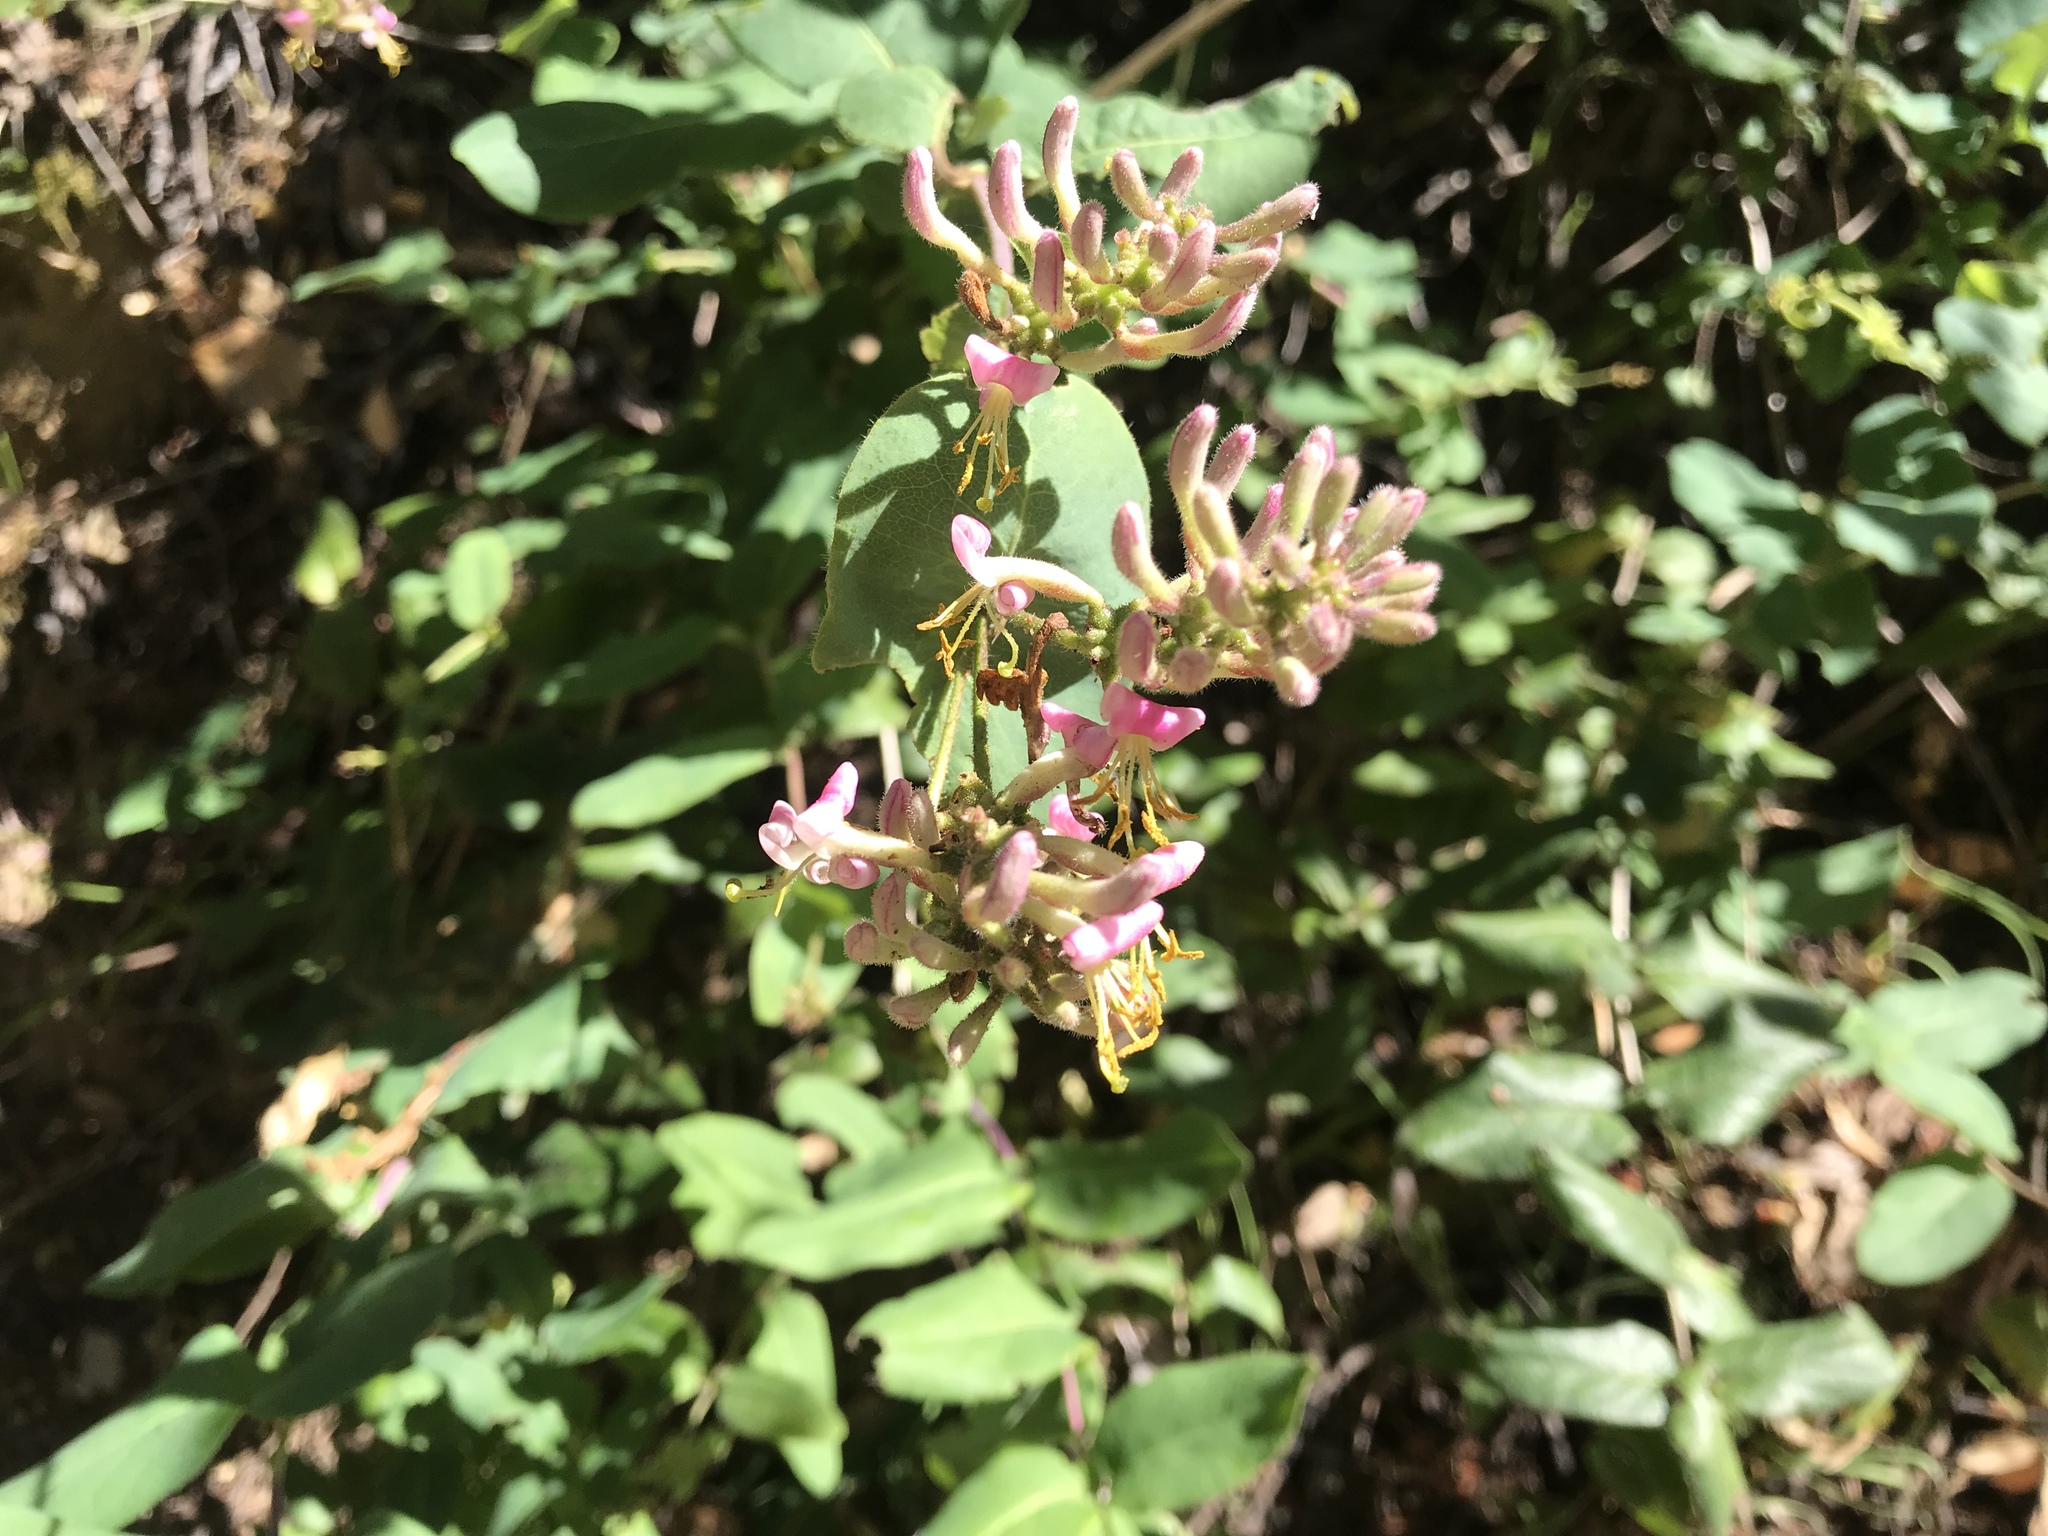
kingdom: Plantae
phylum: Tracheophyta
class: Magnoliopsida
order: Dipsacales
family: Caprifoliaceae
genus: Lonicera
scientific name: Lonicera hispidula
